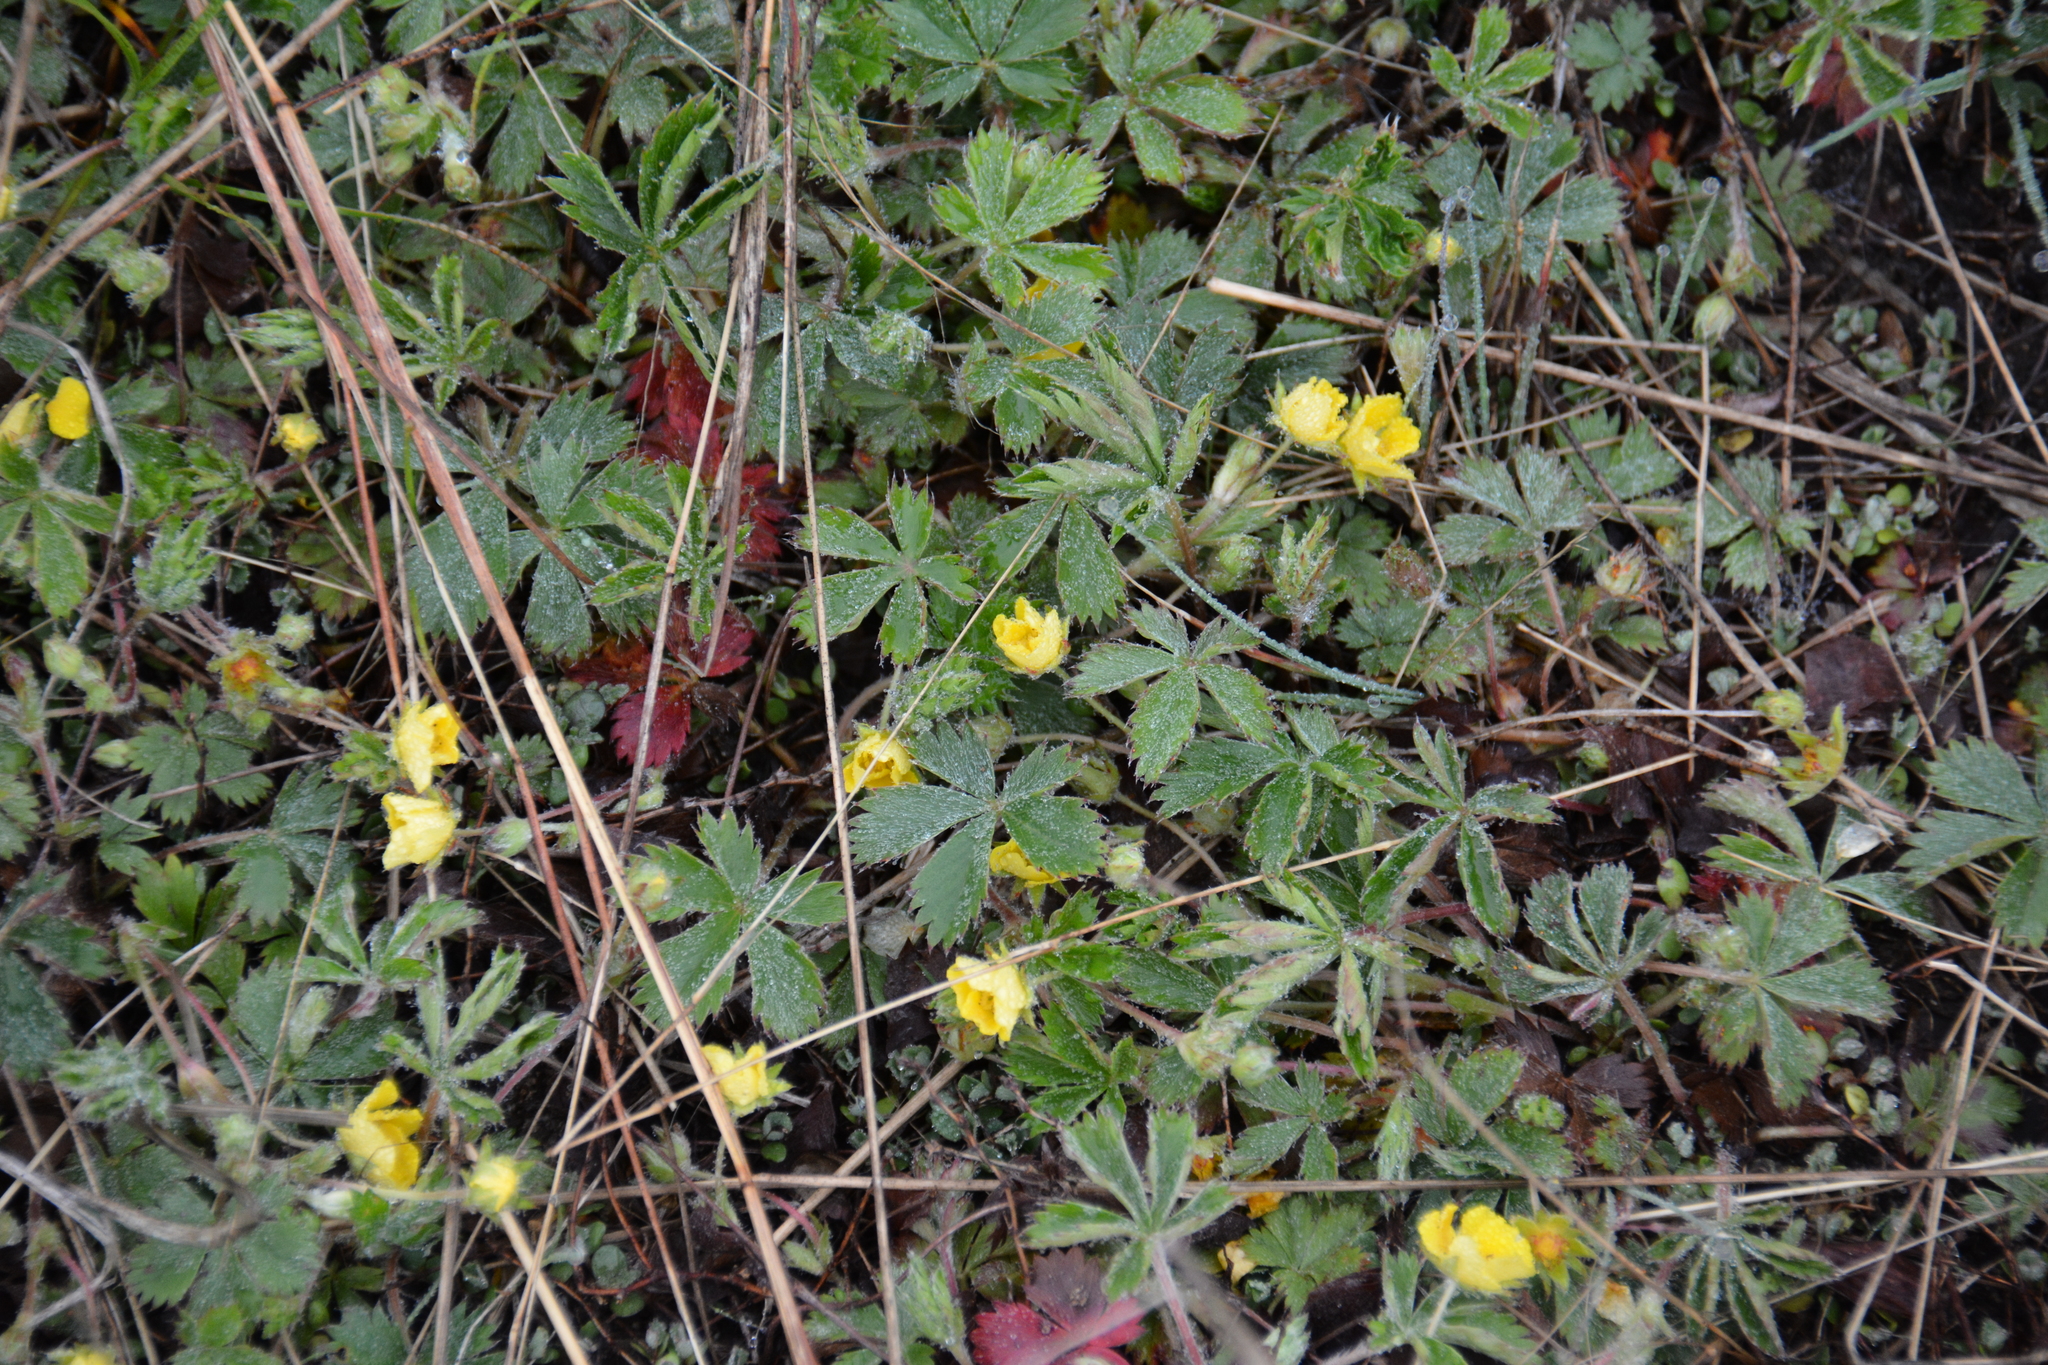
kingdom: Plantae
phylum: Tracheophyta
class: Magnoliopsida
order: Rosales
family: Rosaceae
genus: Potentilla
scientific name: Potentilla canadensis
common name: Canada cinquefoil
